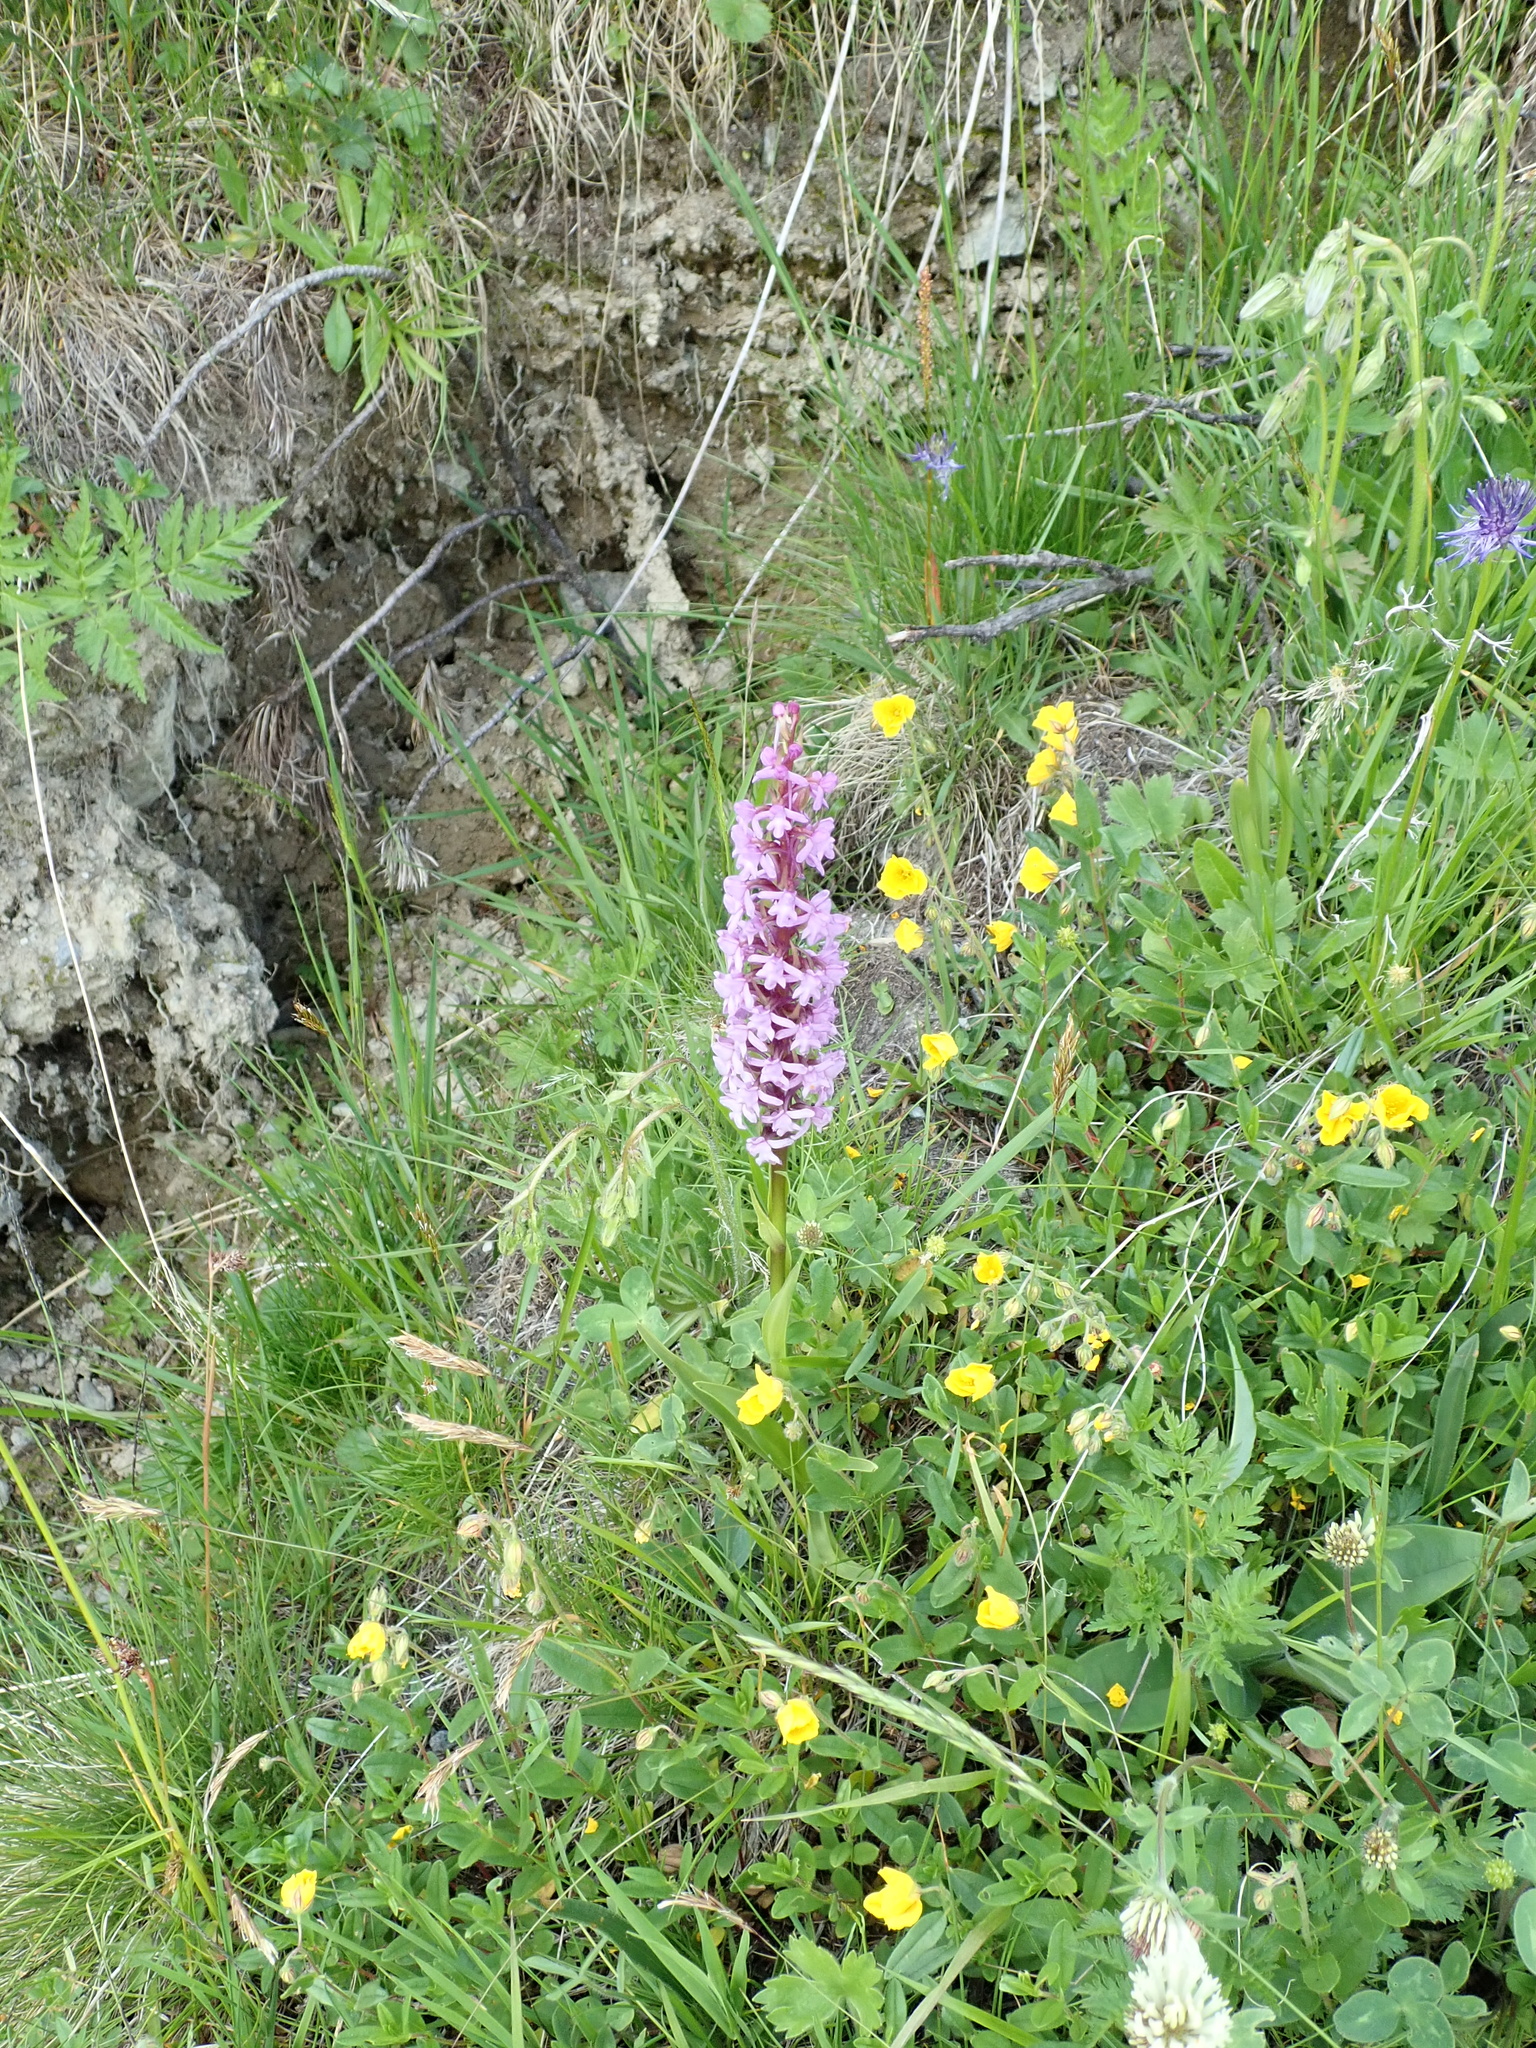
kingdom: Plantae
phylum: Tracheophyta
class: Liliopsida
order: Asparagales
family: Orchidaceae
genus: Gymnadenia
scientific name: Gymnadenia conopsea
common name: Fragrant orchid
